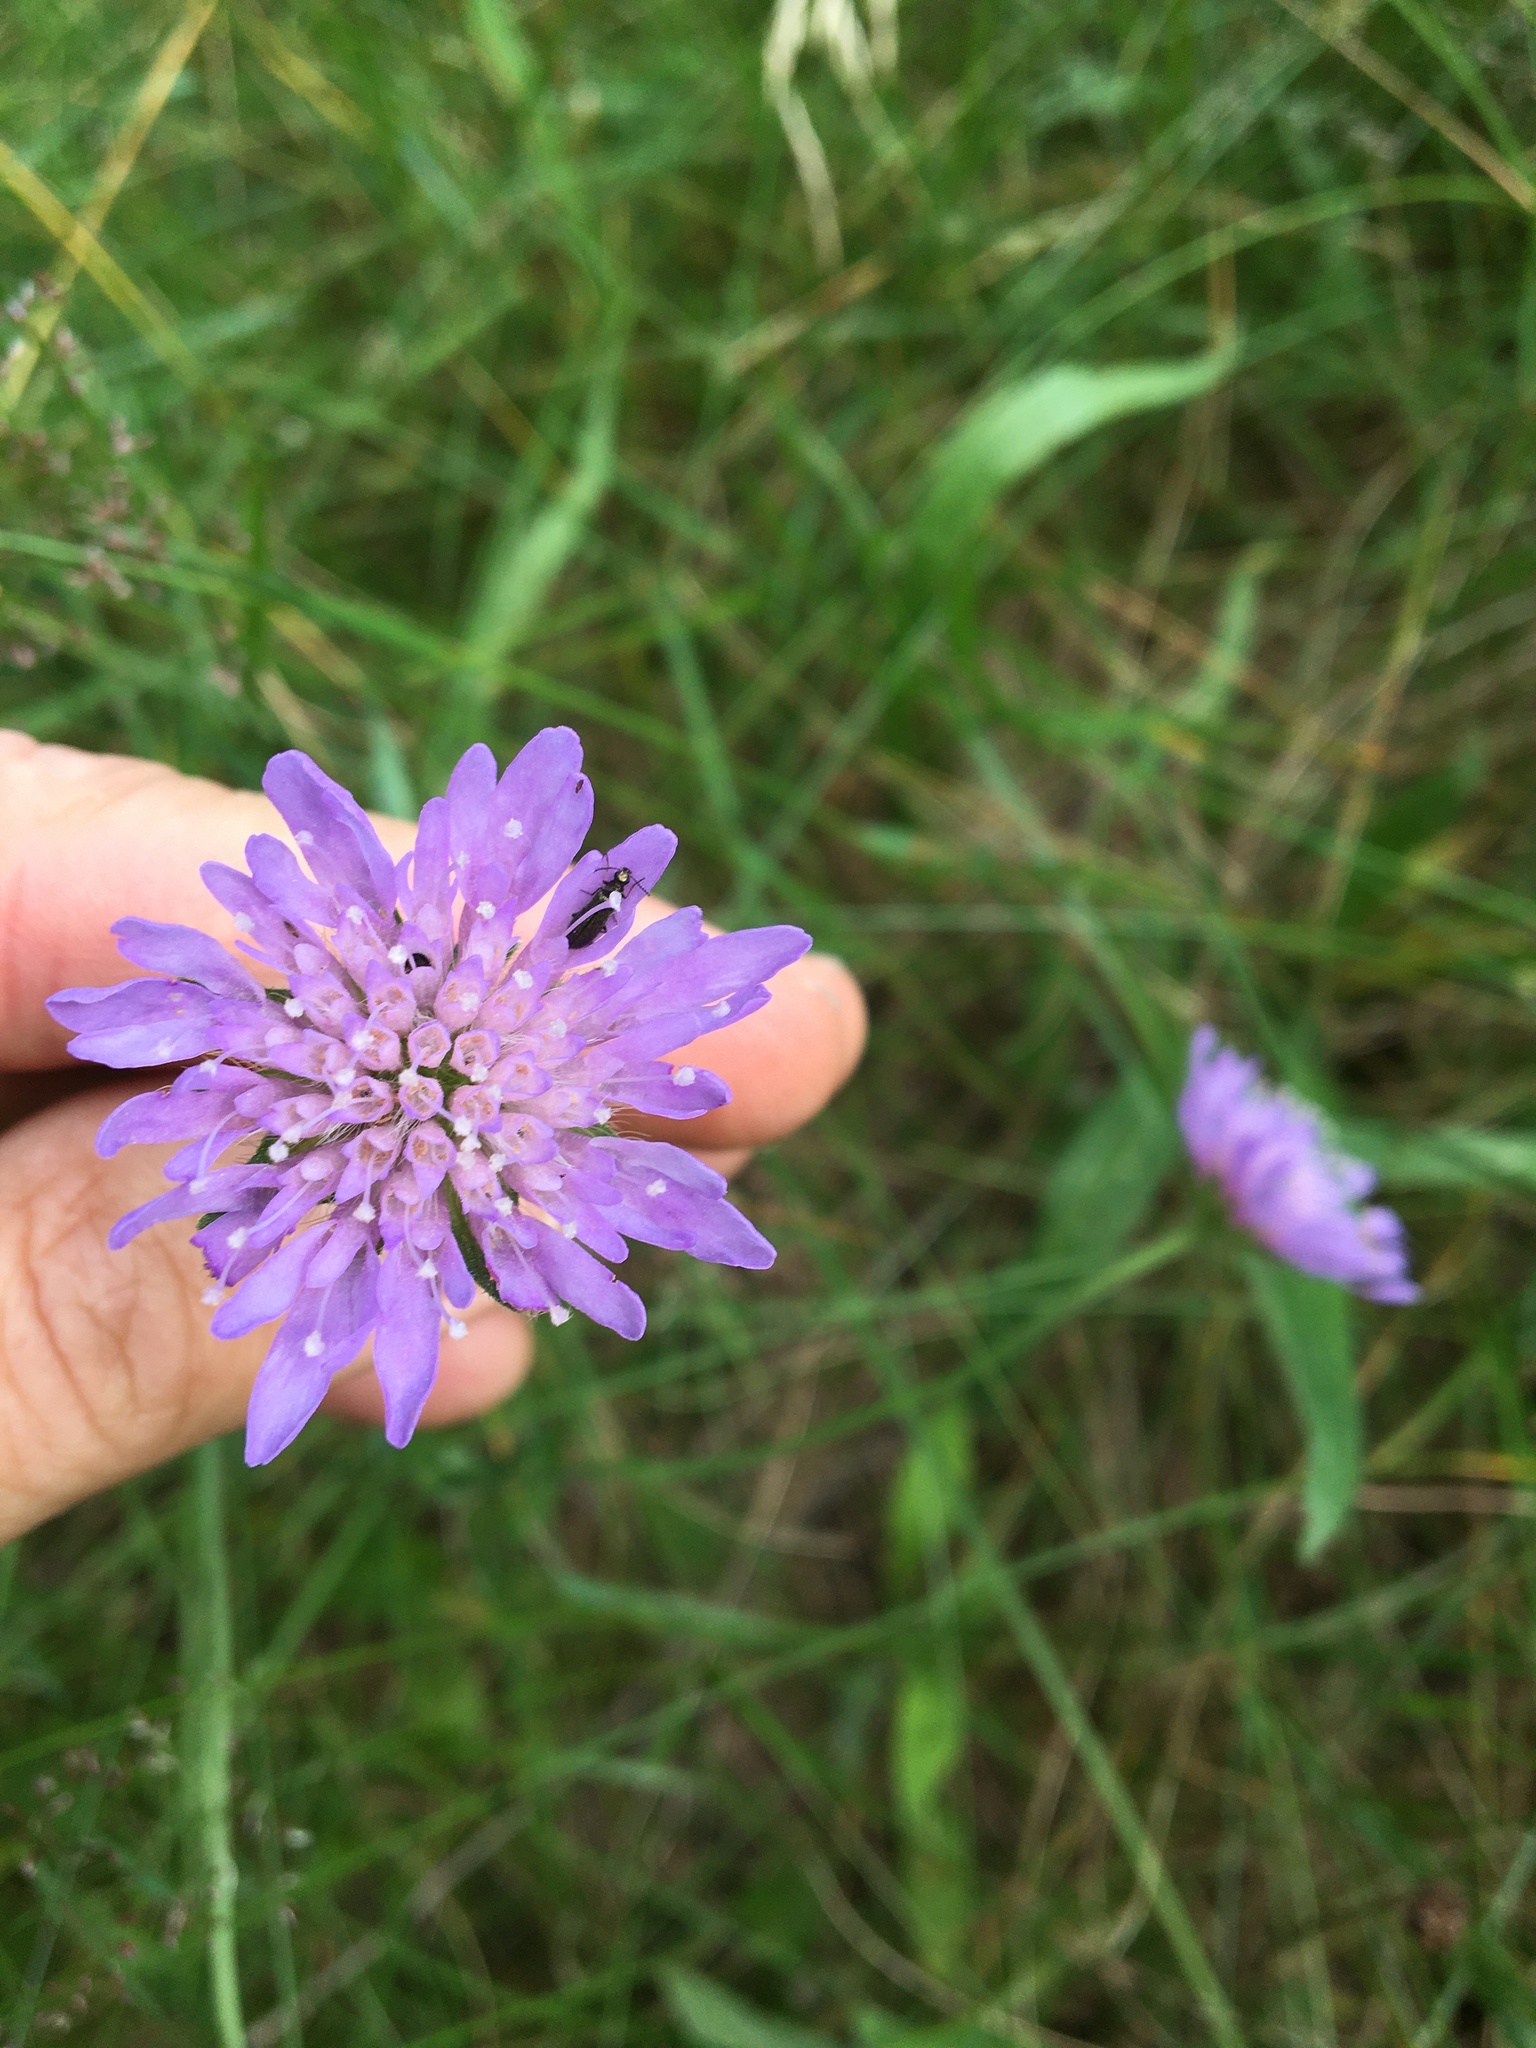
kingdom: Plantae
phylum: Tracheophyta
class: Magnoliopsida
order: Dipsacales
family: Caprifoliaceae
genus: Knautia
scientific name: Knautia arvensis
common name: Field scabiosa
